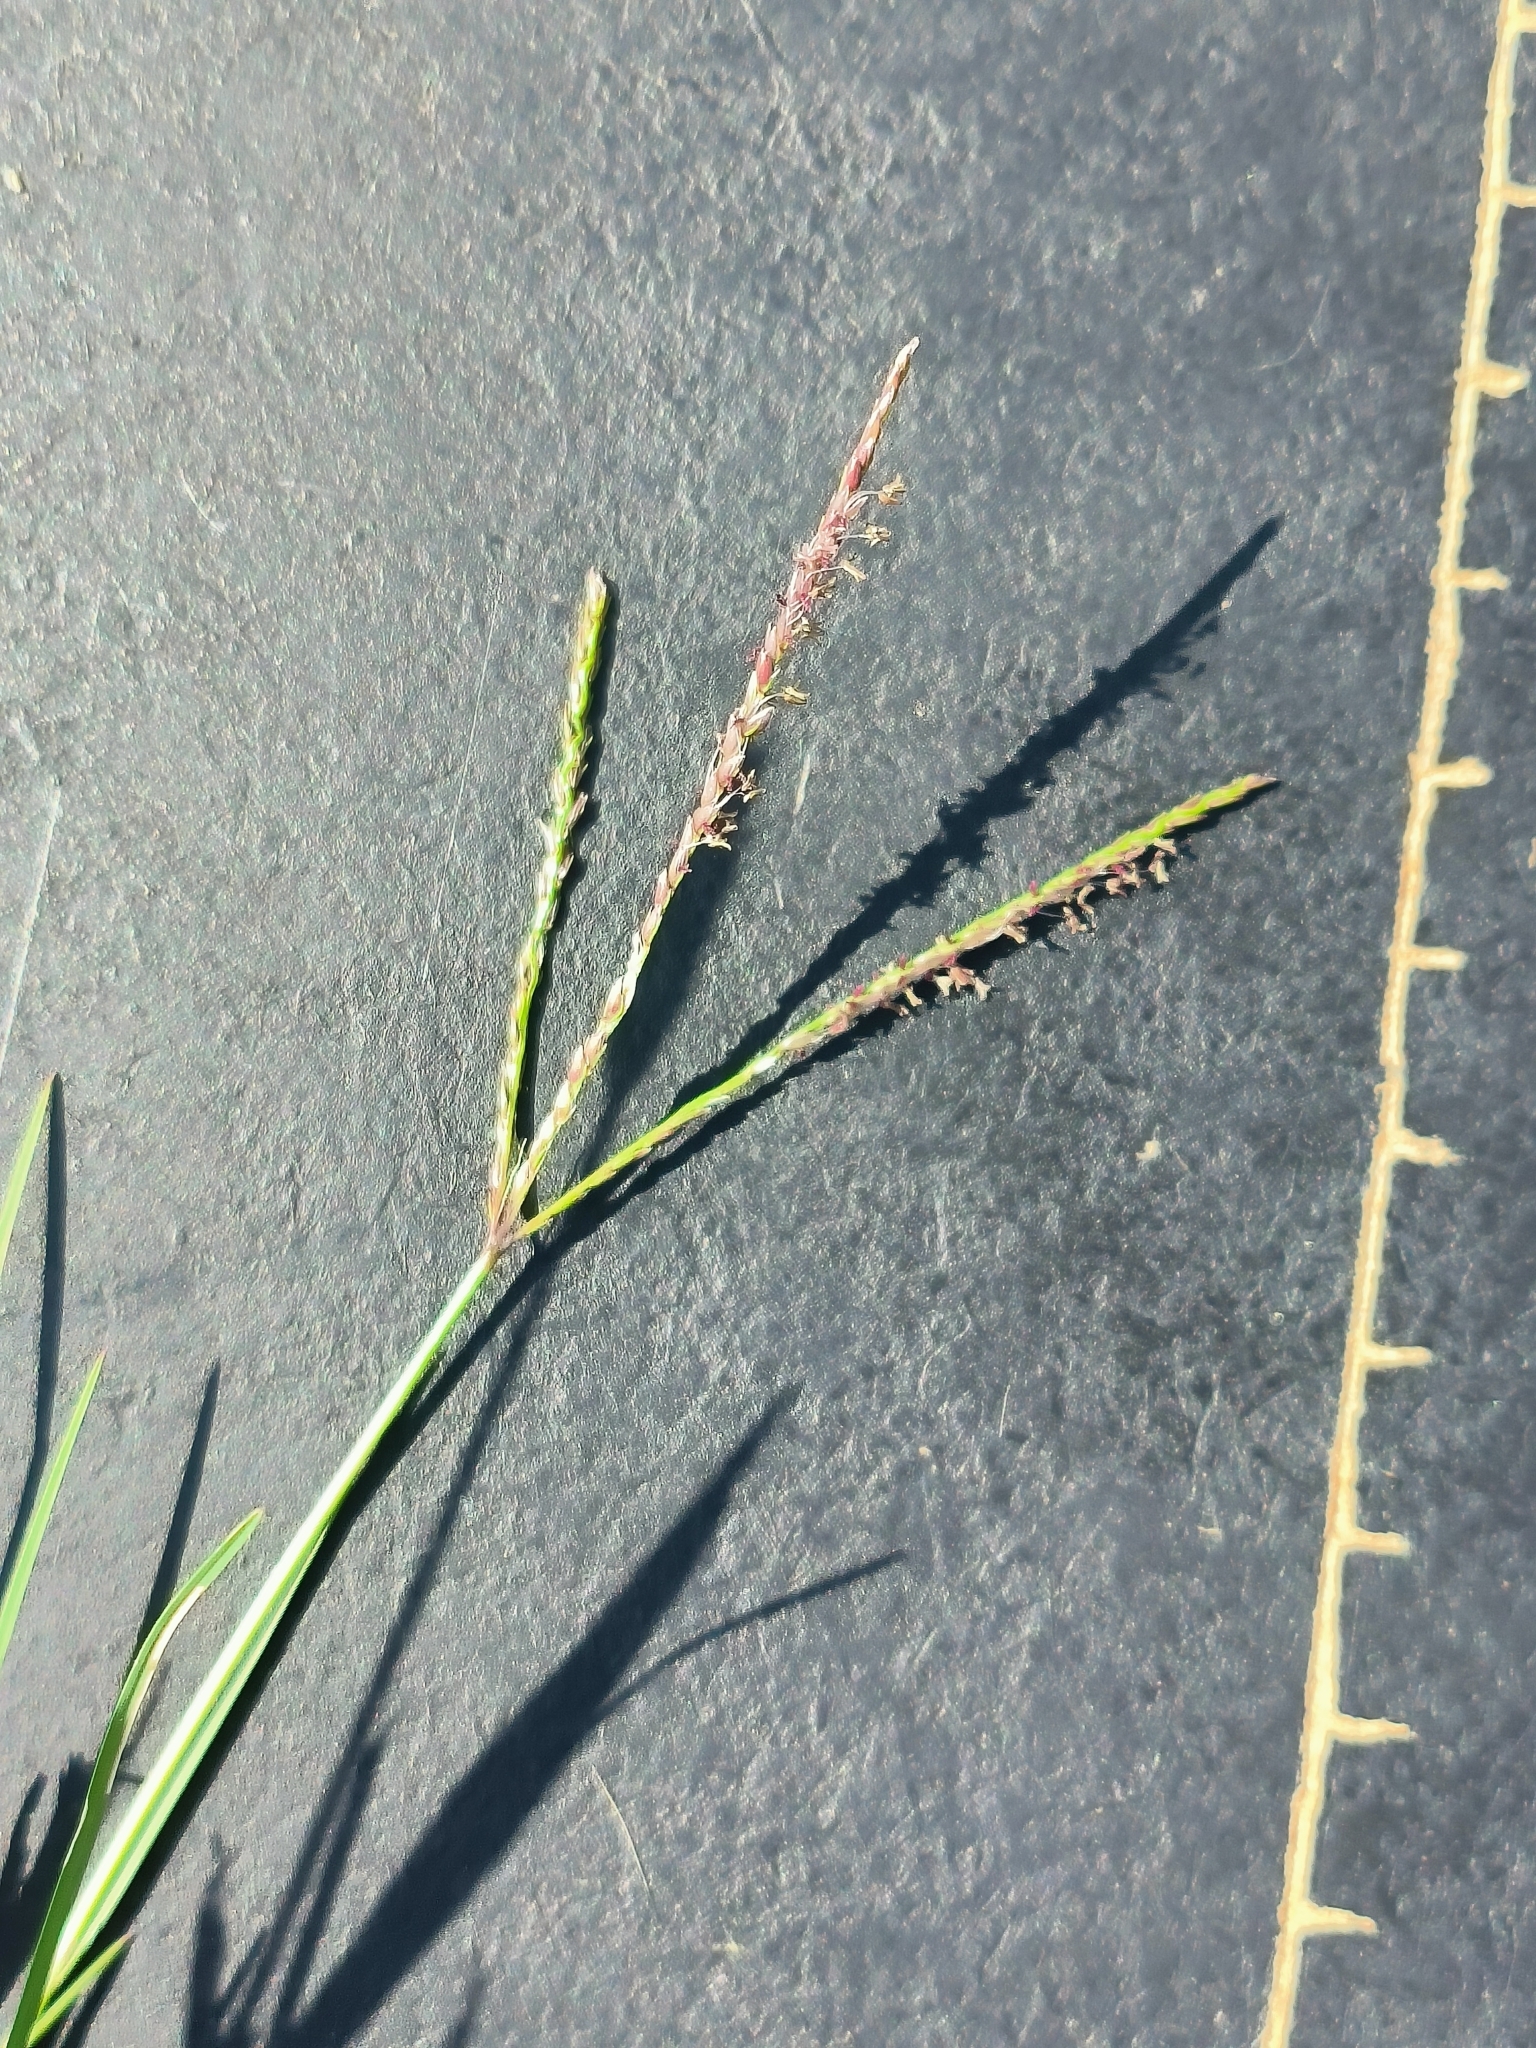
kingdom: Plantae
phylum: Tracheophyta
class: Liliopsida
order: Poales
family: Poaceae
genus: Cynodon
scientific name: Cynodon dactylon
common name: Bermuda grass
